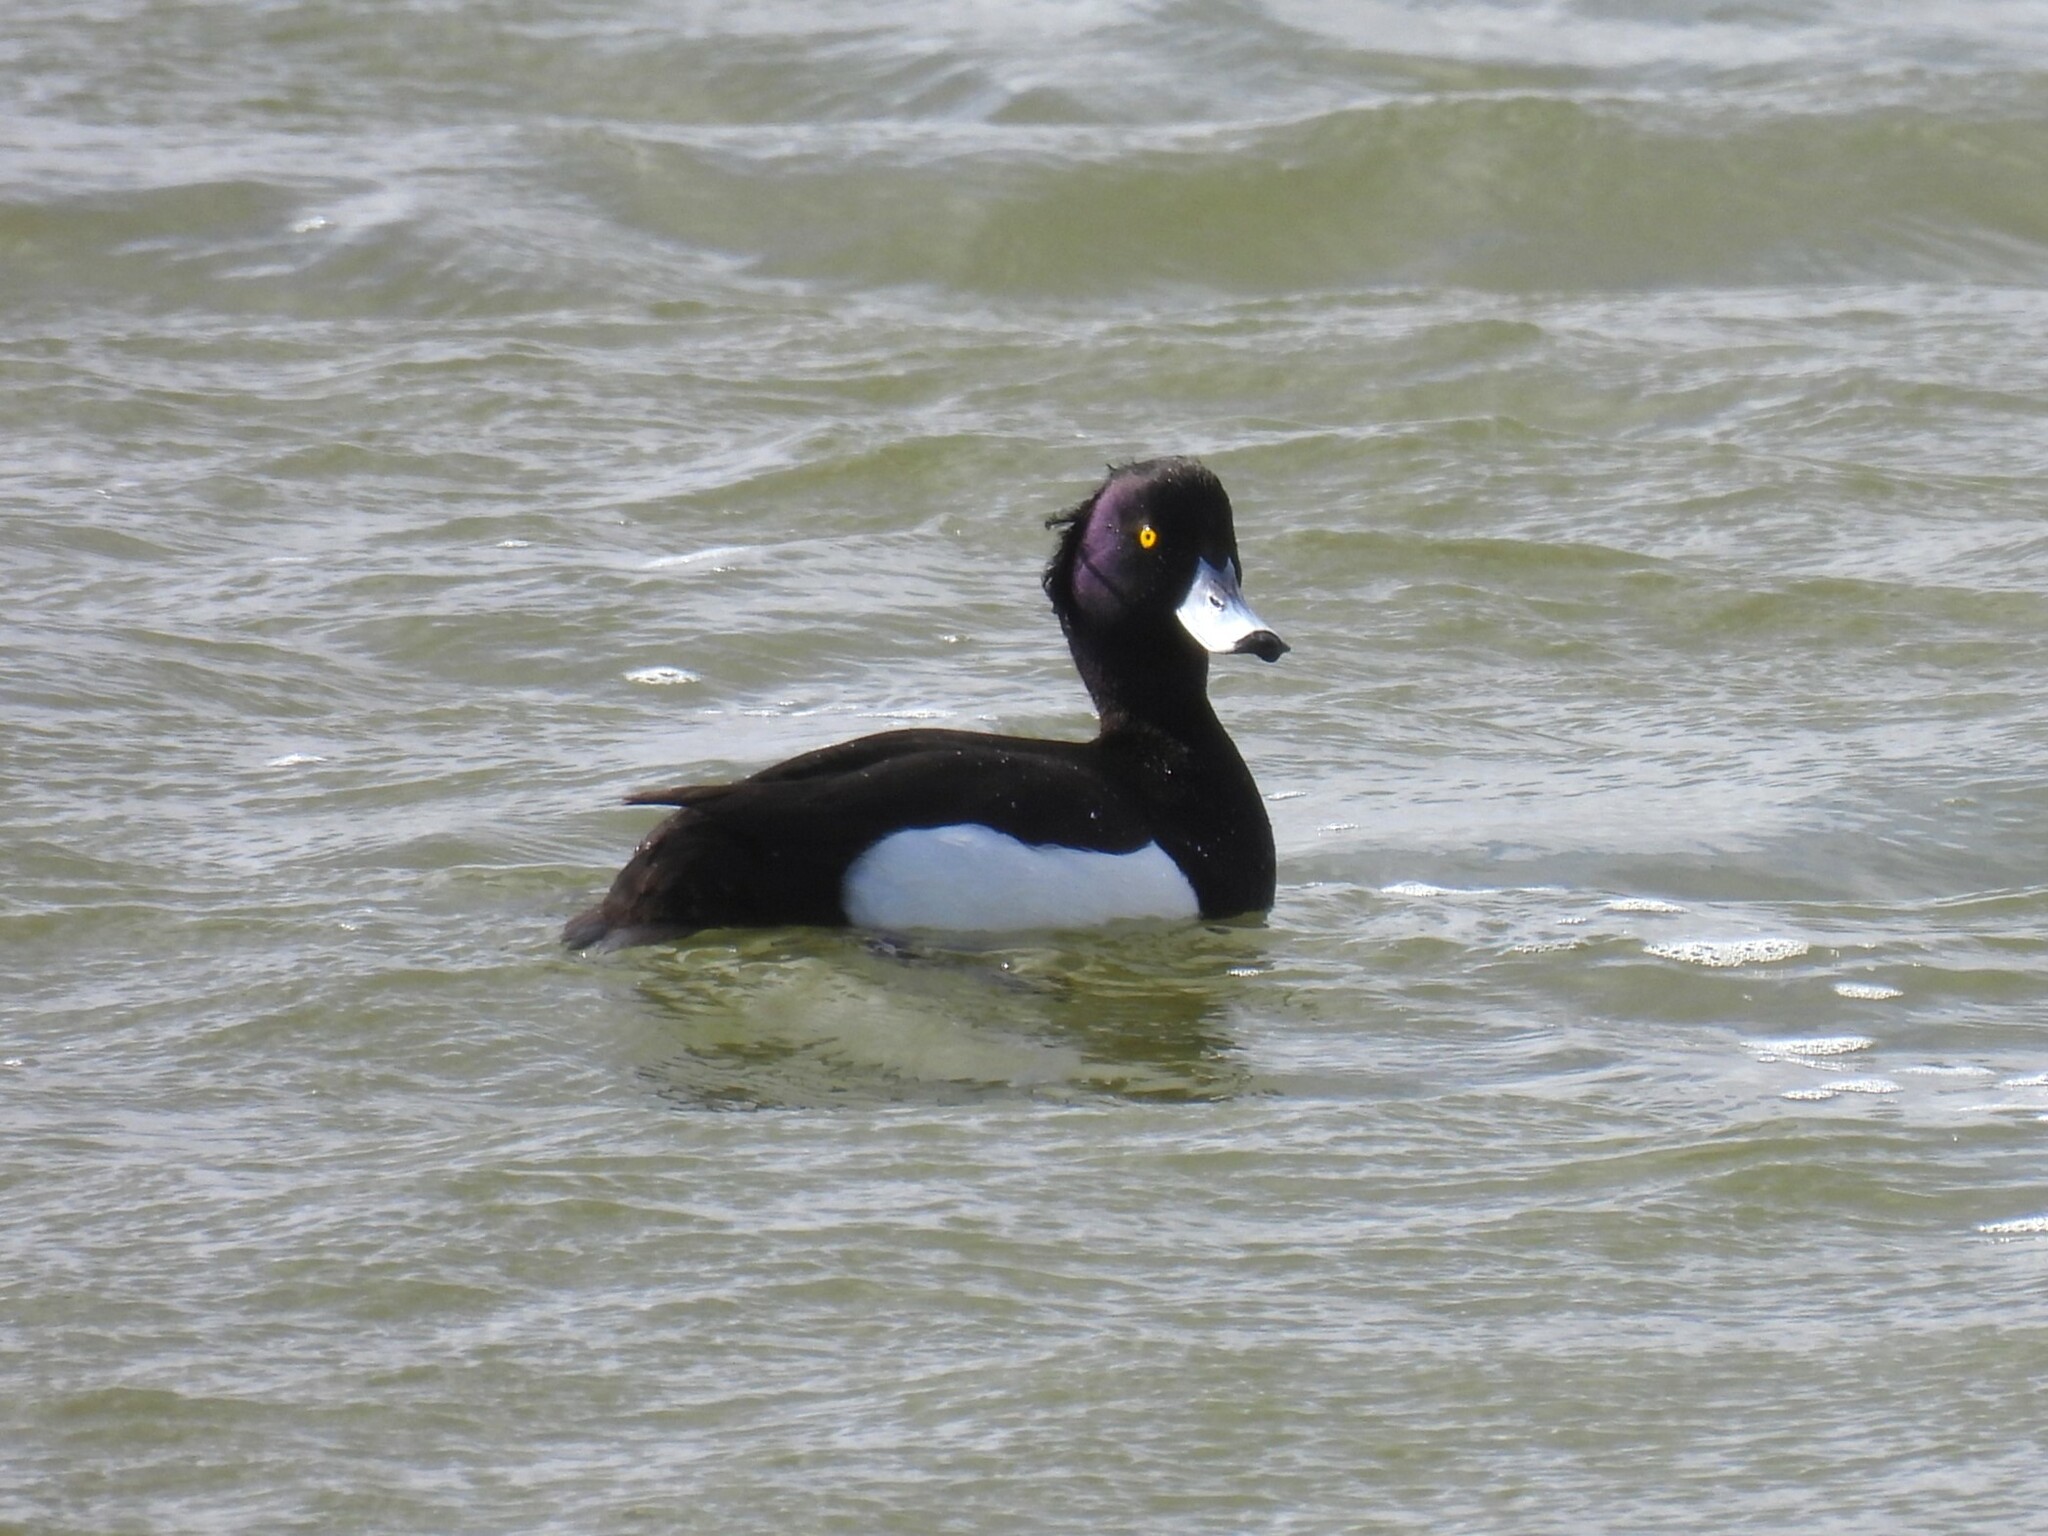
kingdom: Animalia
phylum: Chordata
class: Aves
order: Anseriformes
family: Anatidae
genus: Aythya
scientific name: Aythya fuligula
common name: Tufted duck
